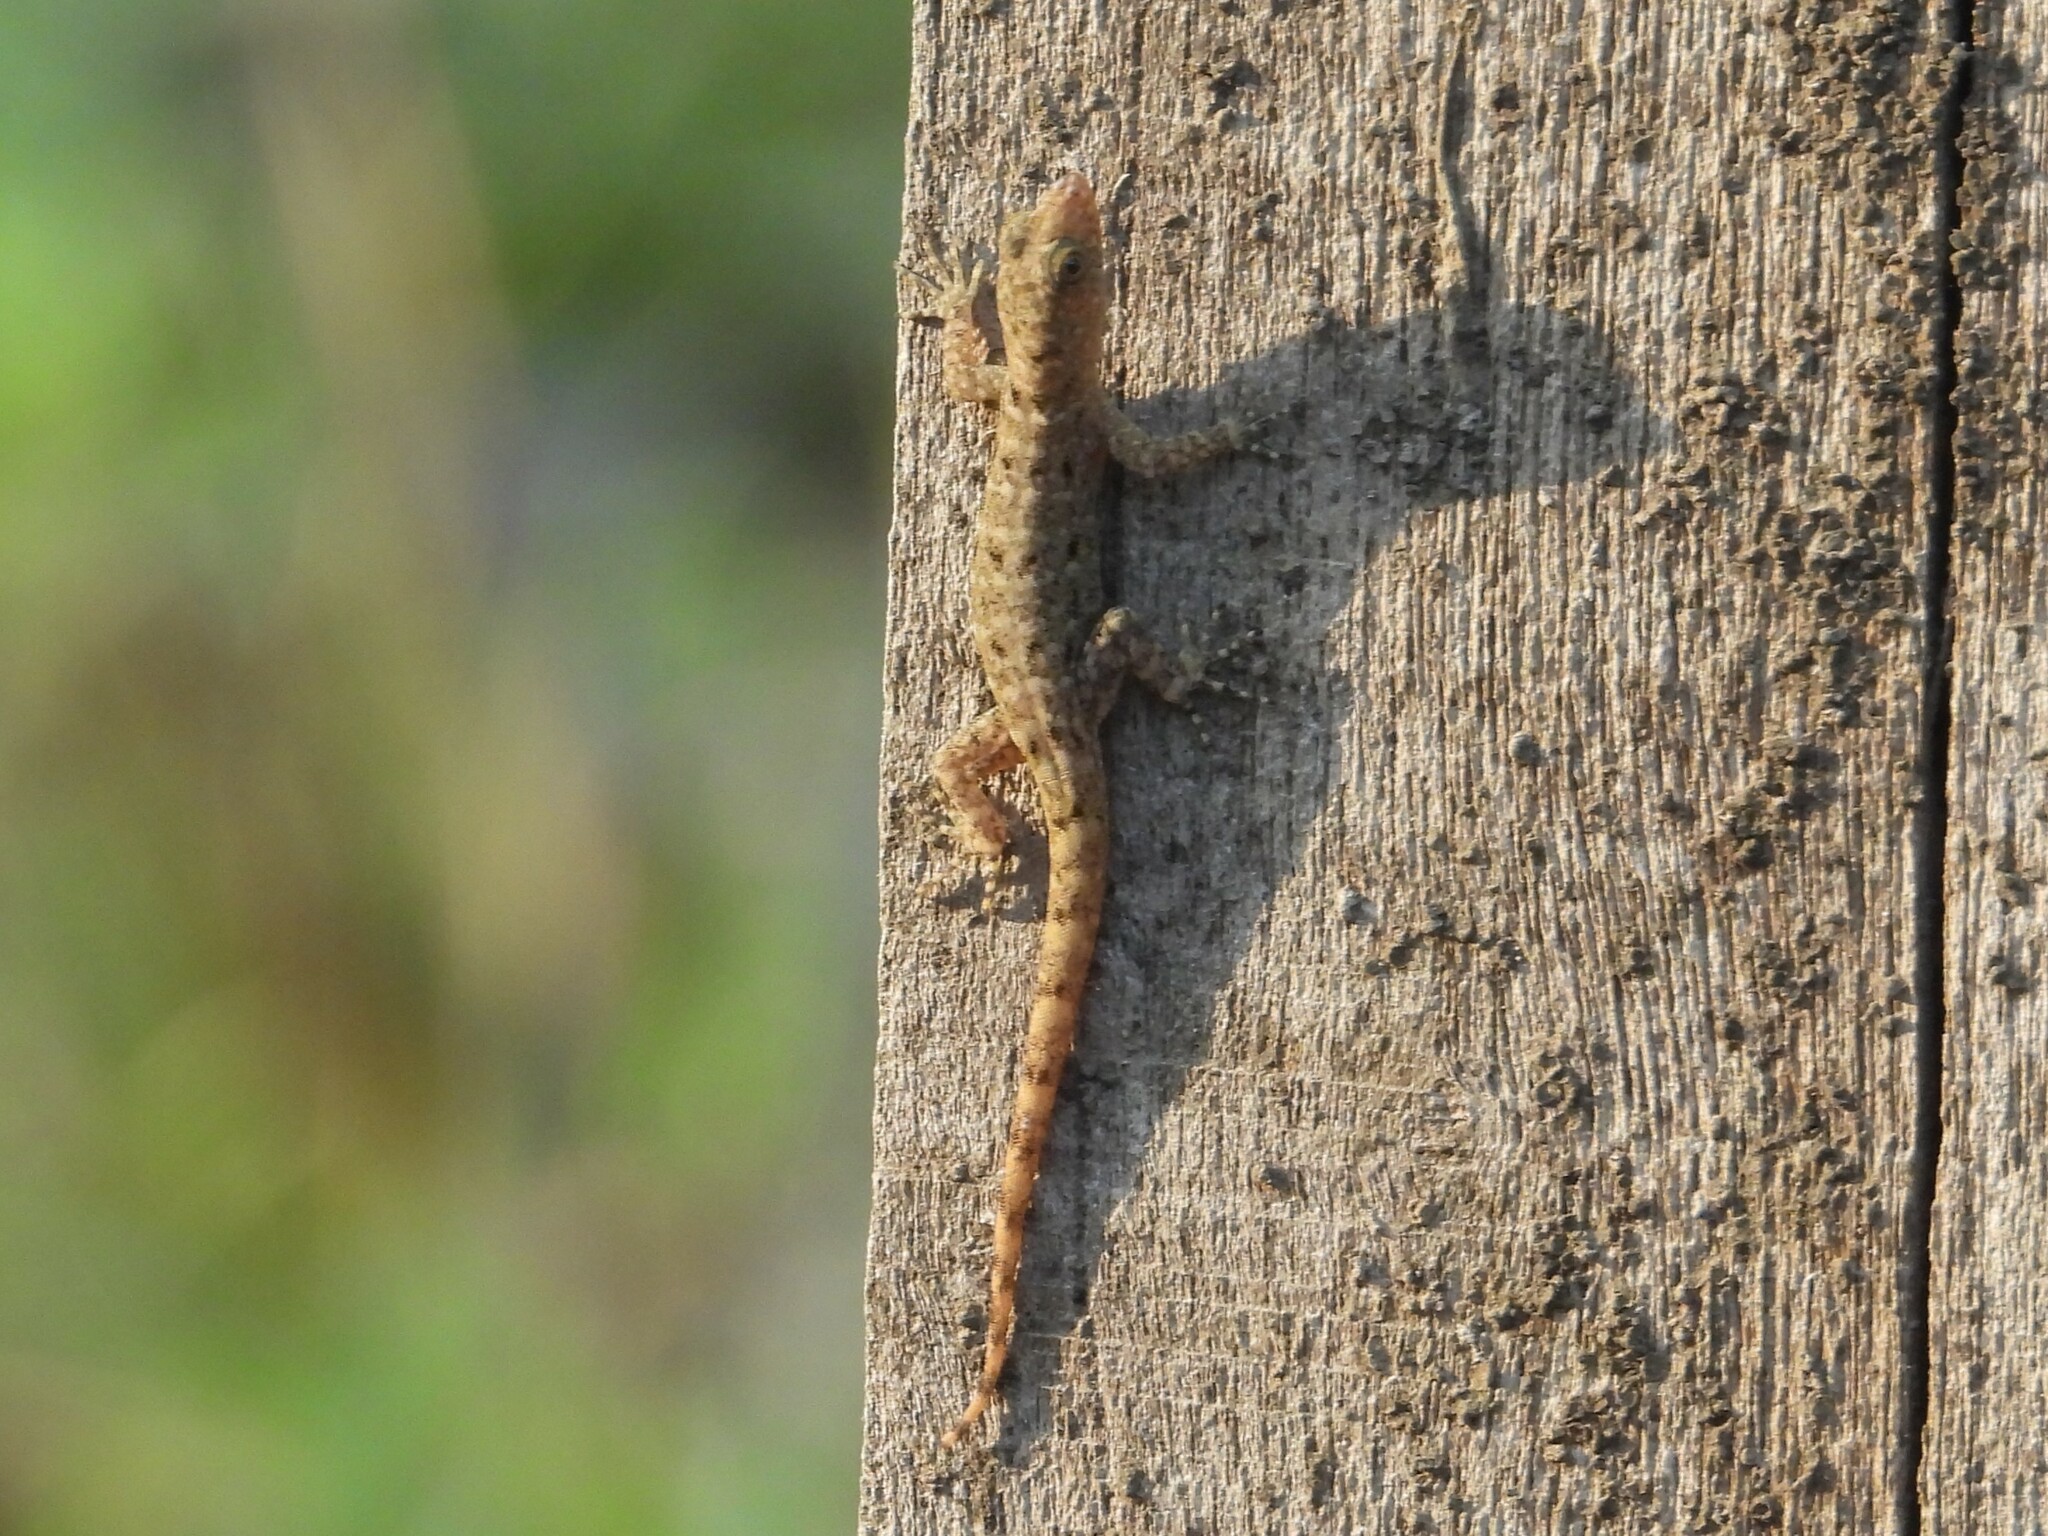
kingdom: Animalia
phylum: Chordata
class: Squamata
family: Sphaerodactylidae
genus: Gonatodes
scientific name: Gonatodes albogularis
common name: Yellow-headed gecko
